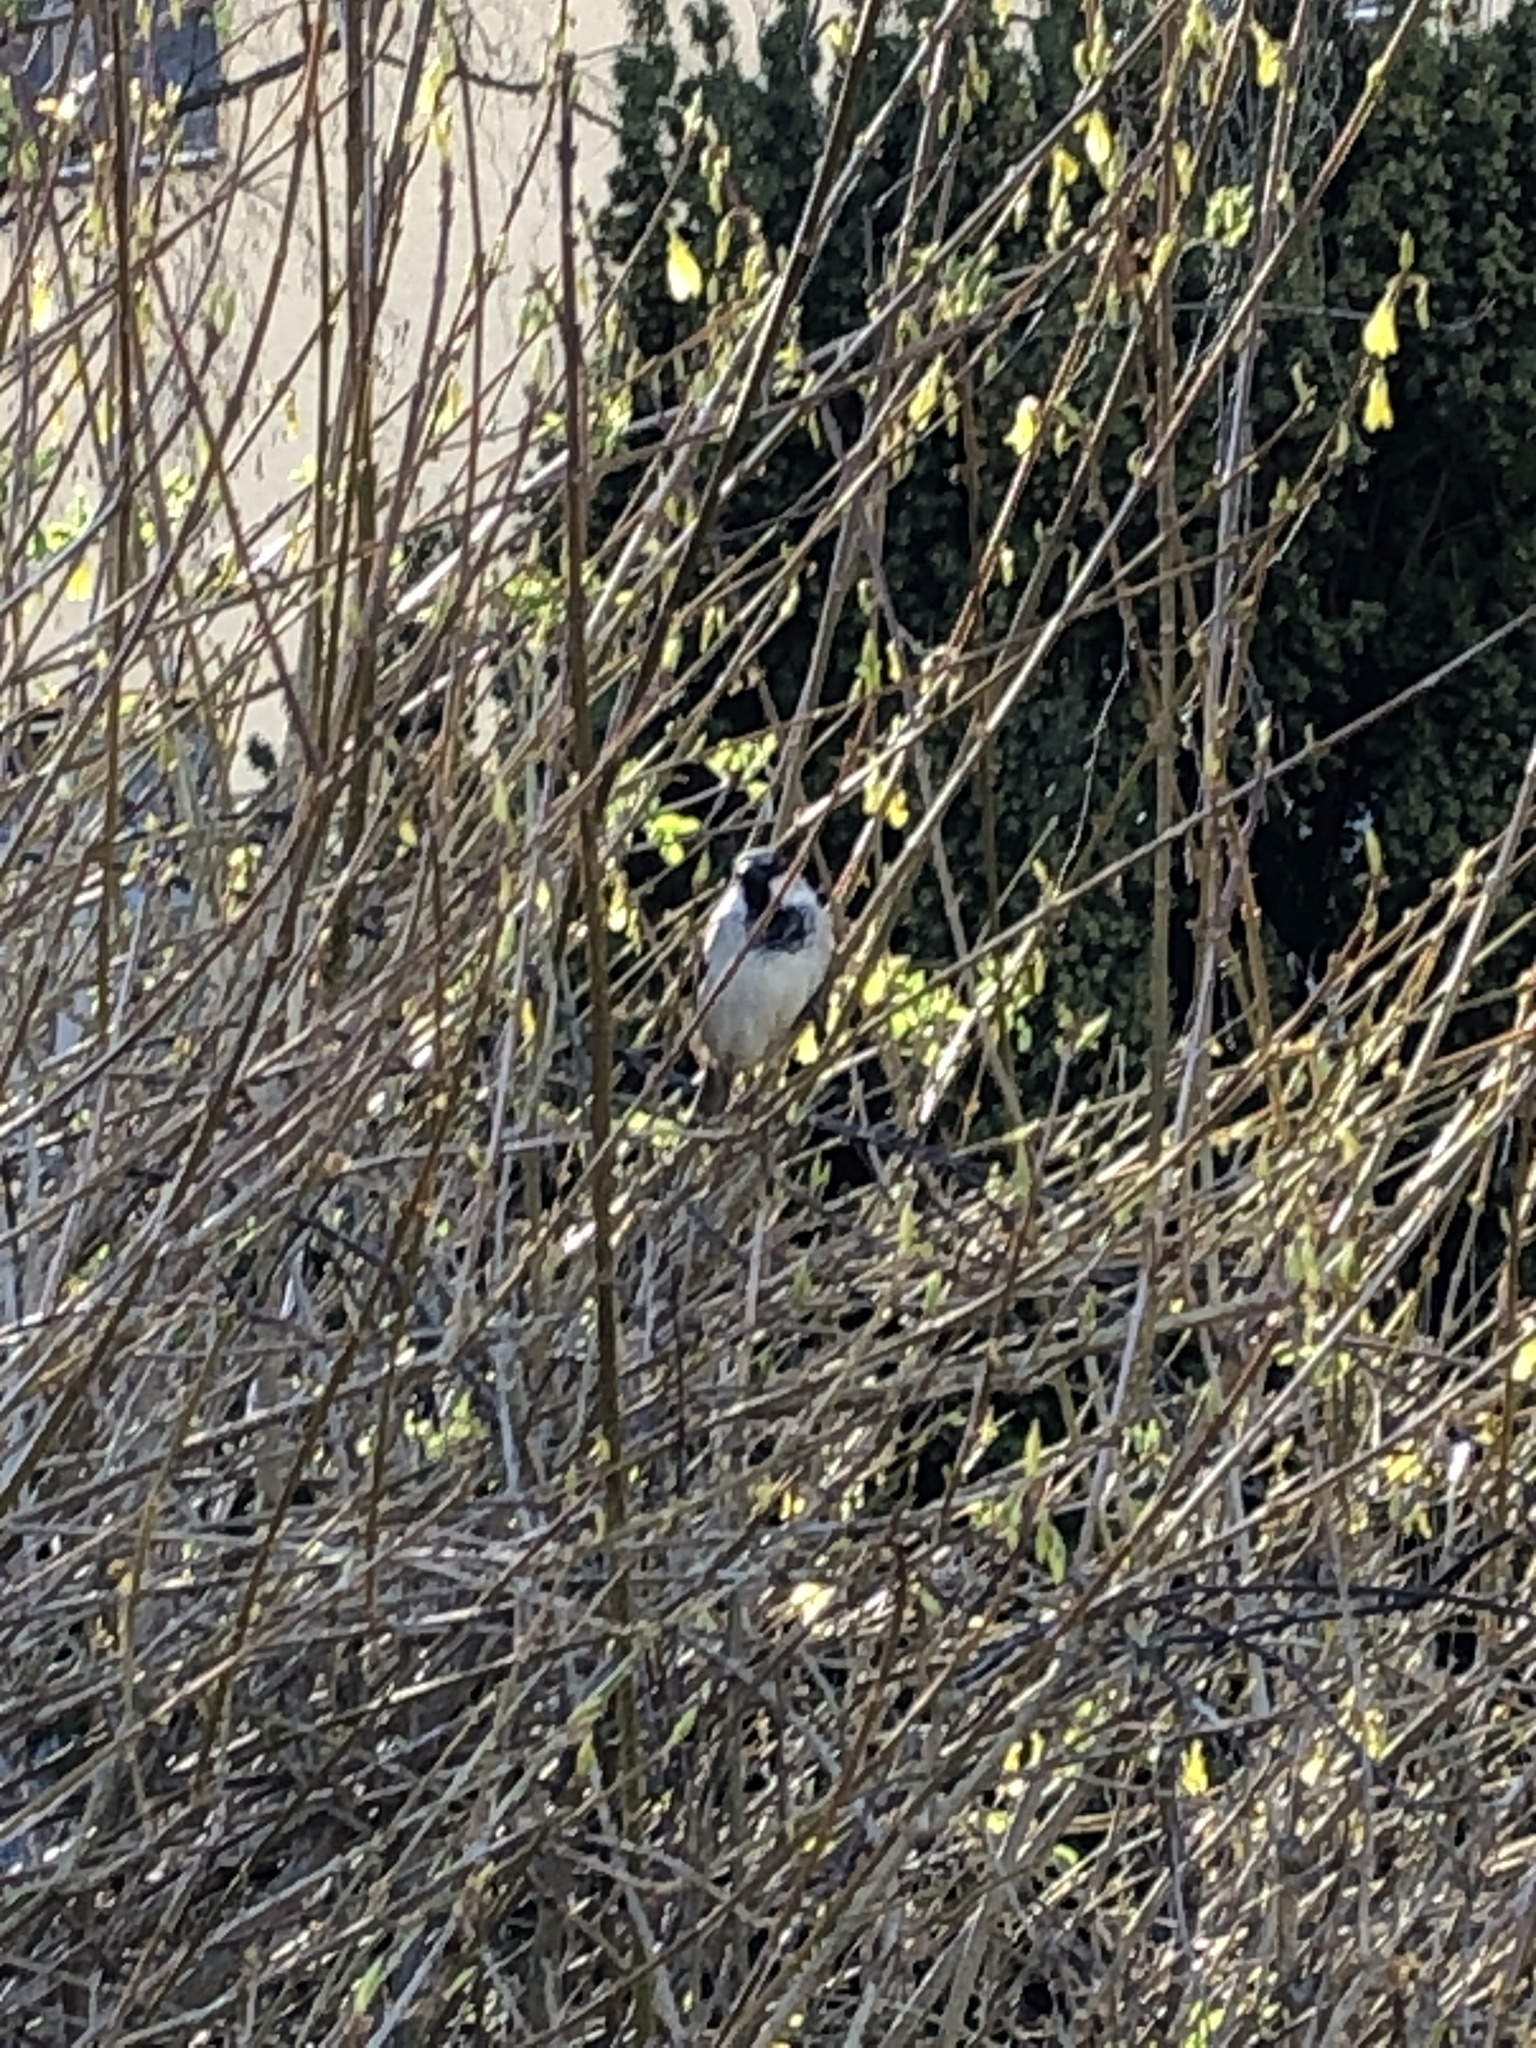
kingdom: Animalia
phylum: Chordata
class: Aves
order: Passeriformes
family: Passeridae
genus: Passer
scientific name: Passer domesticus
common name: House sparrow
